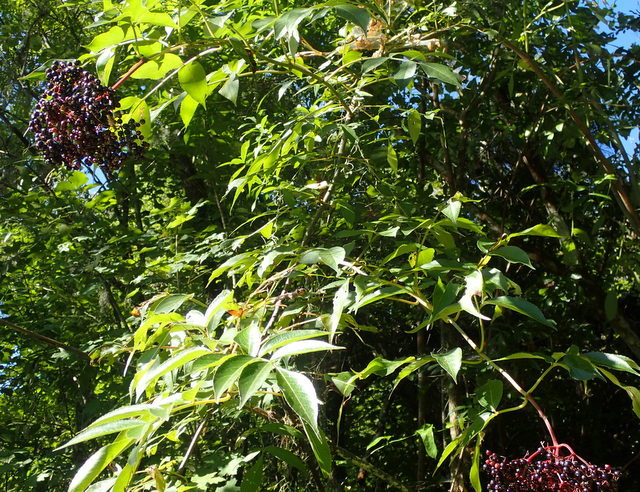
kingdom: Plantae
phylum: Tracheophyta
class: Magnoliopsida
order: Dipsacales
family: Viburnaceae
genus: Sambucus
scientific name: Sambucus canadensis
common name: American elder
